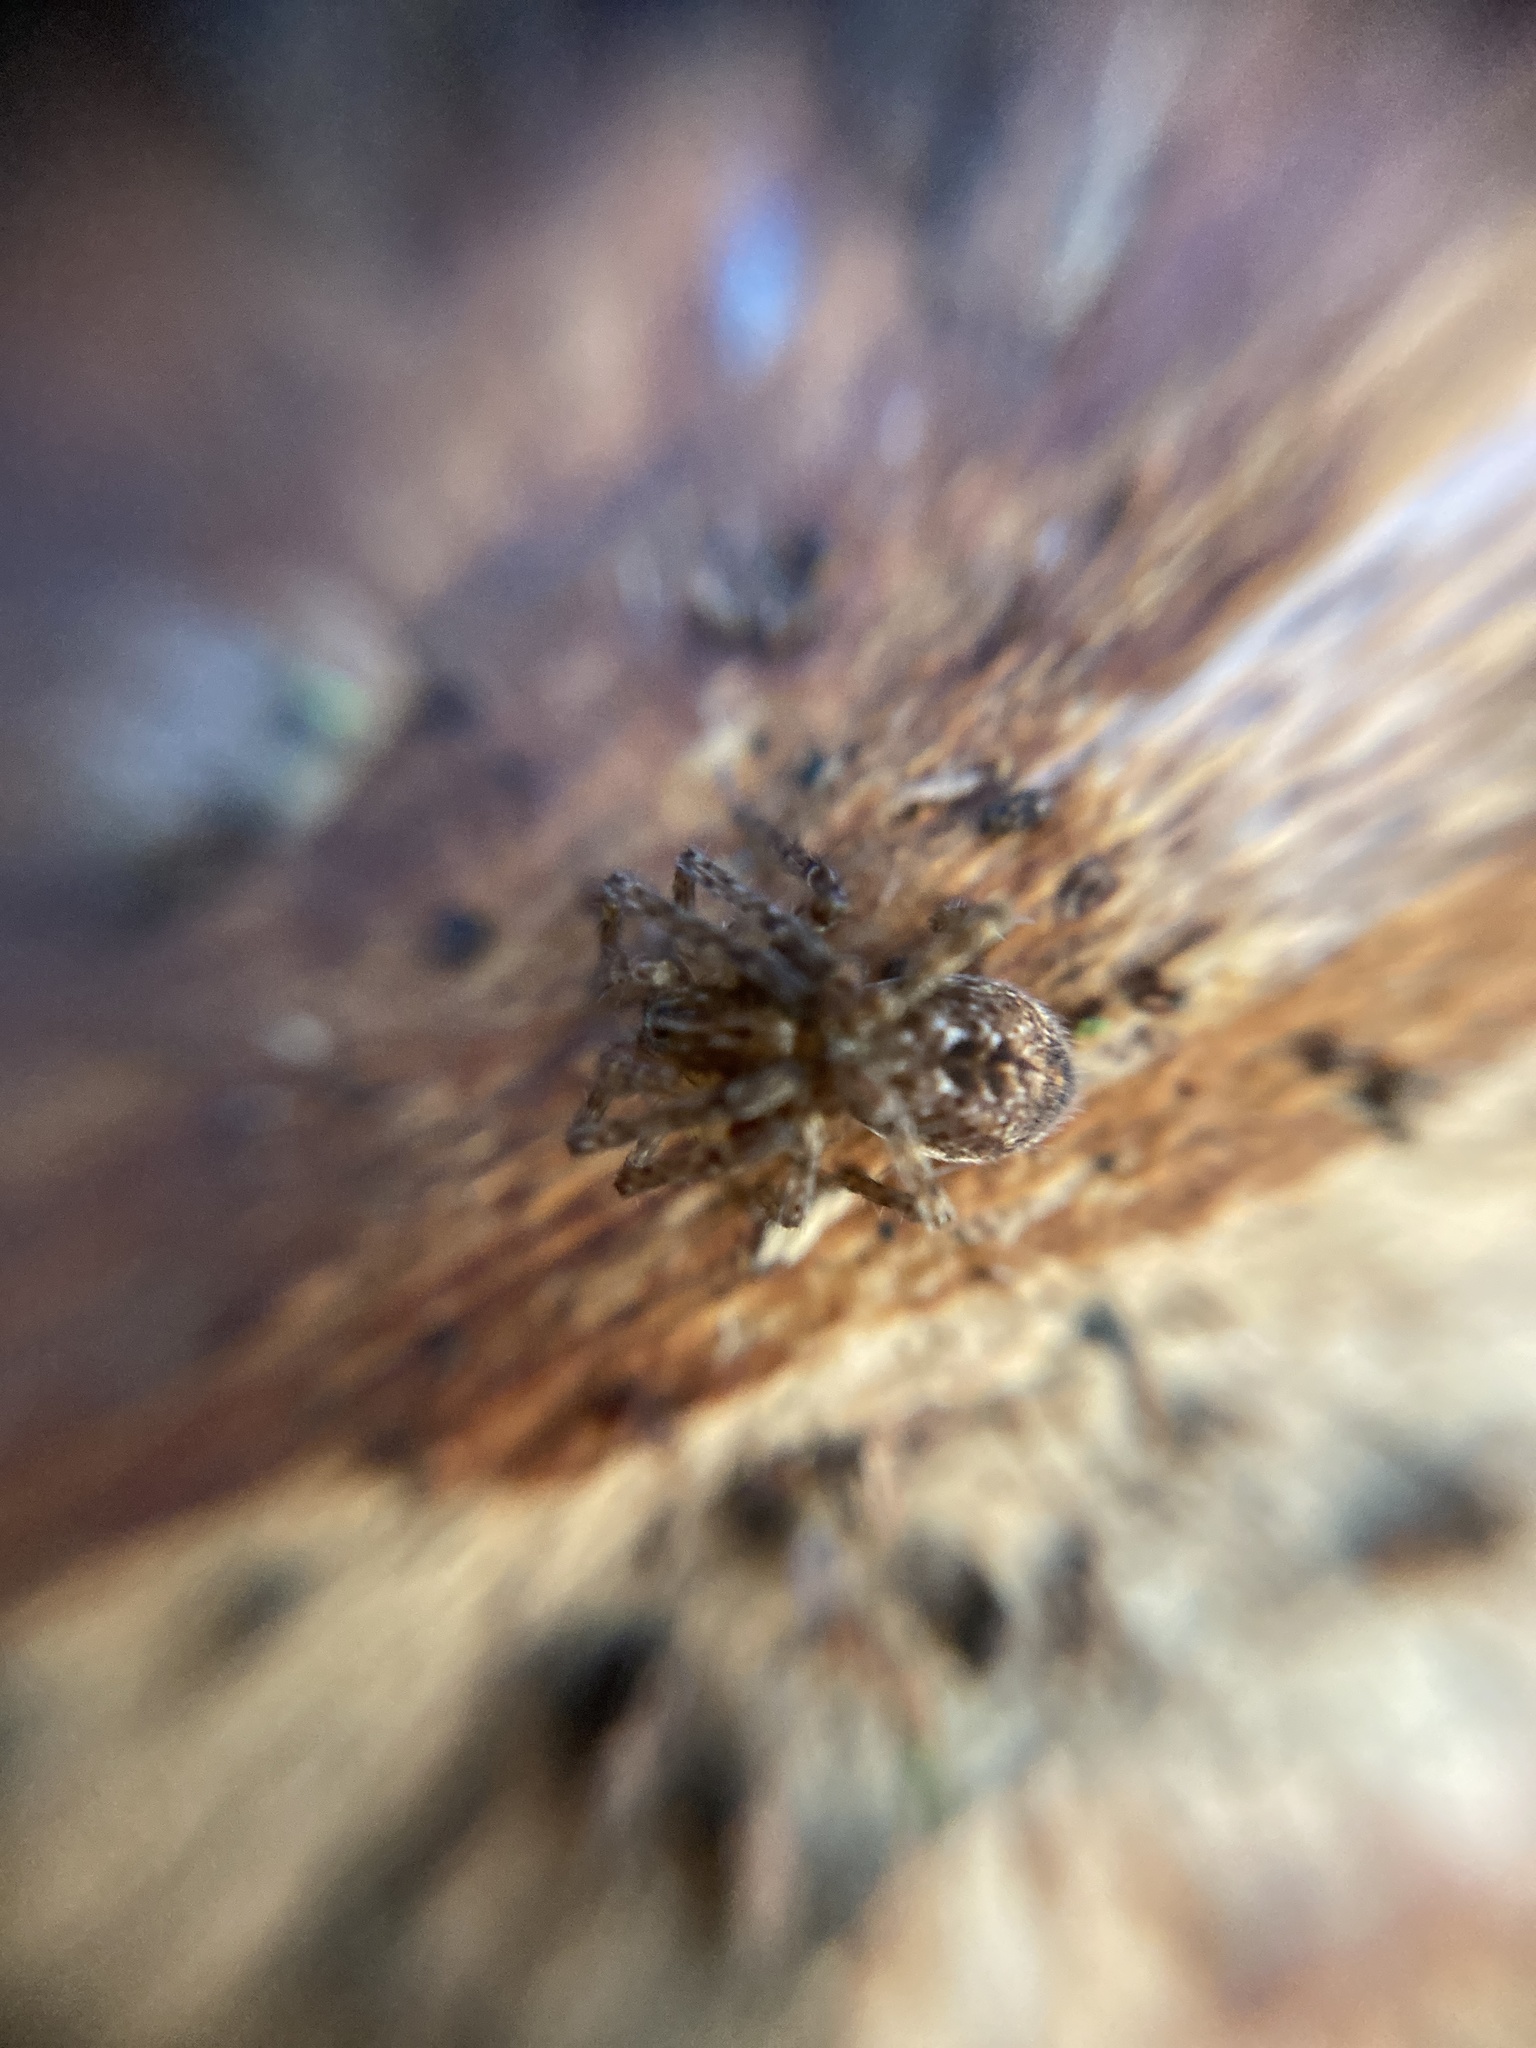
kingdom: Animalia
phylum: Arthropoda
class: Arachnida
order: Araneae
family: Anyphaenidae
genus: Anyphaena
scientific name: Anyphaena accentuata
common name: Buzzing spider
